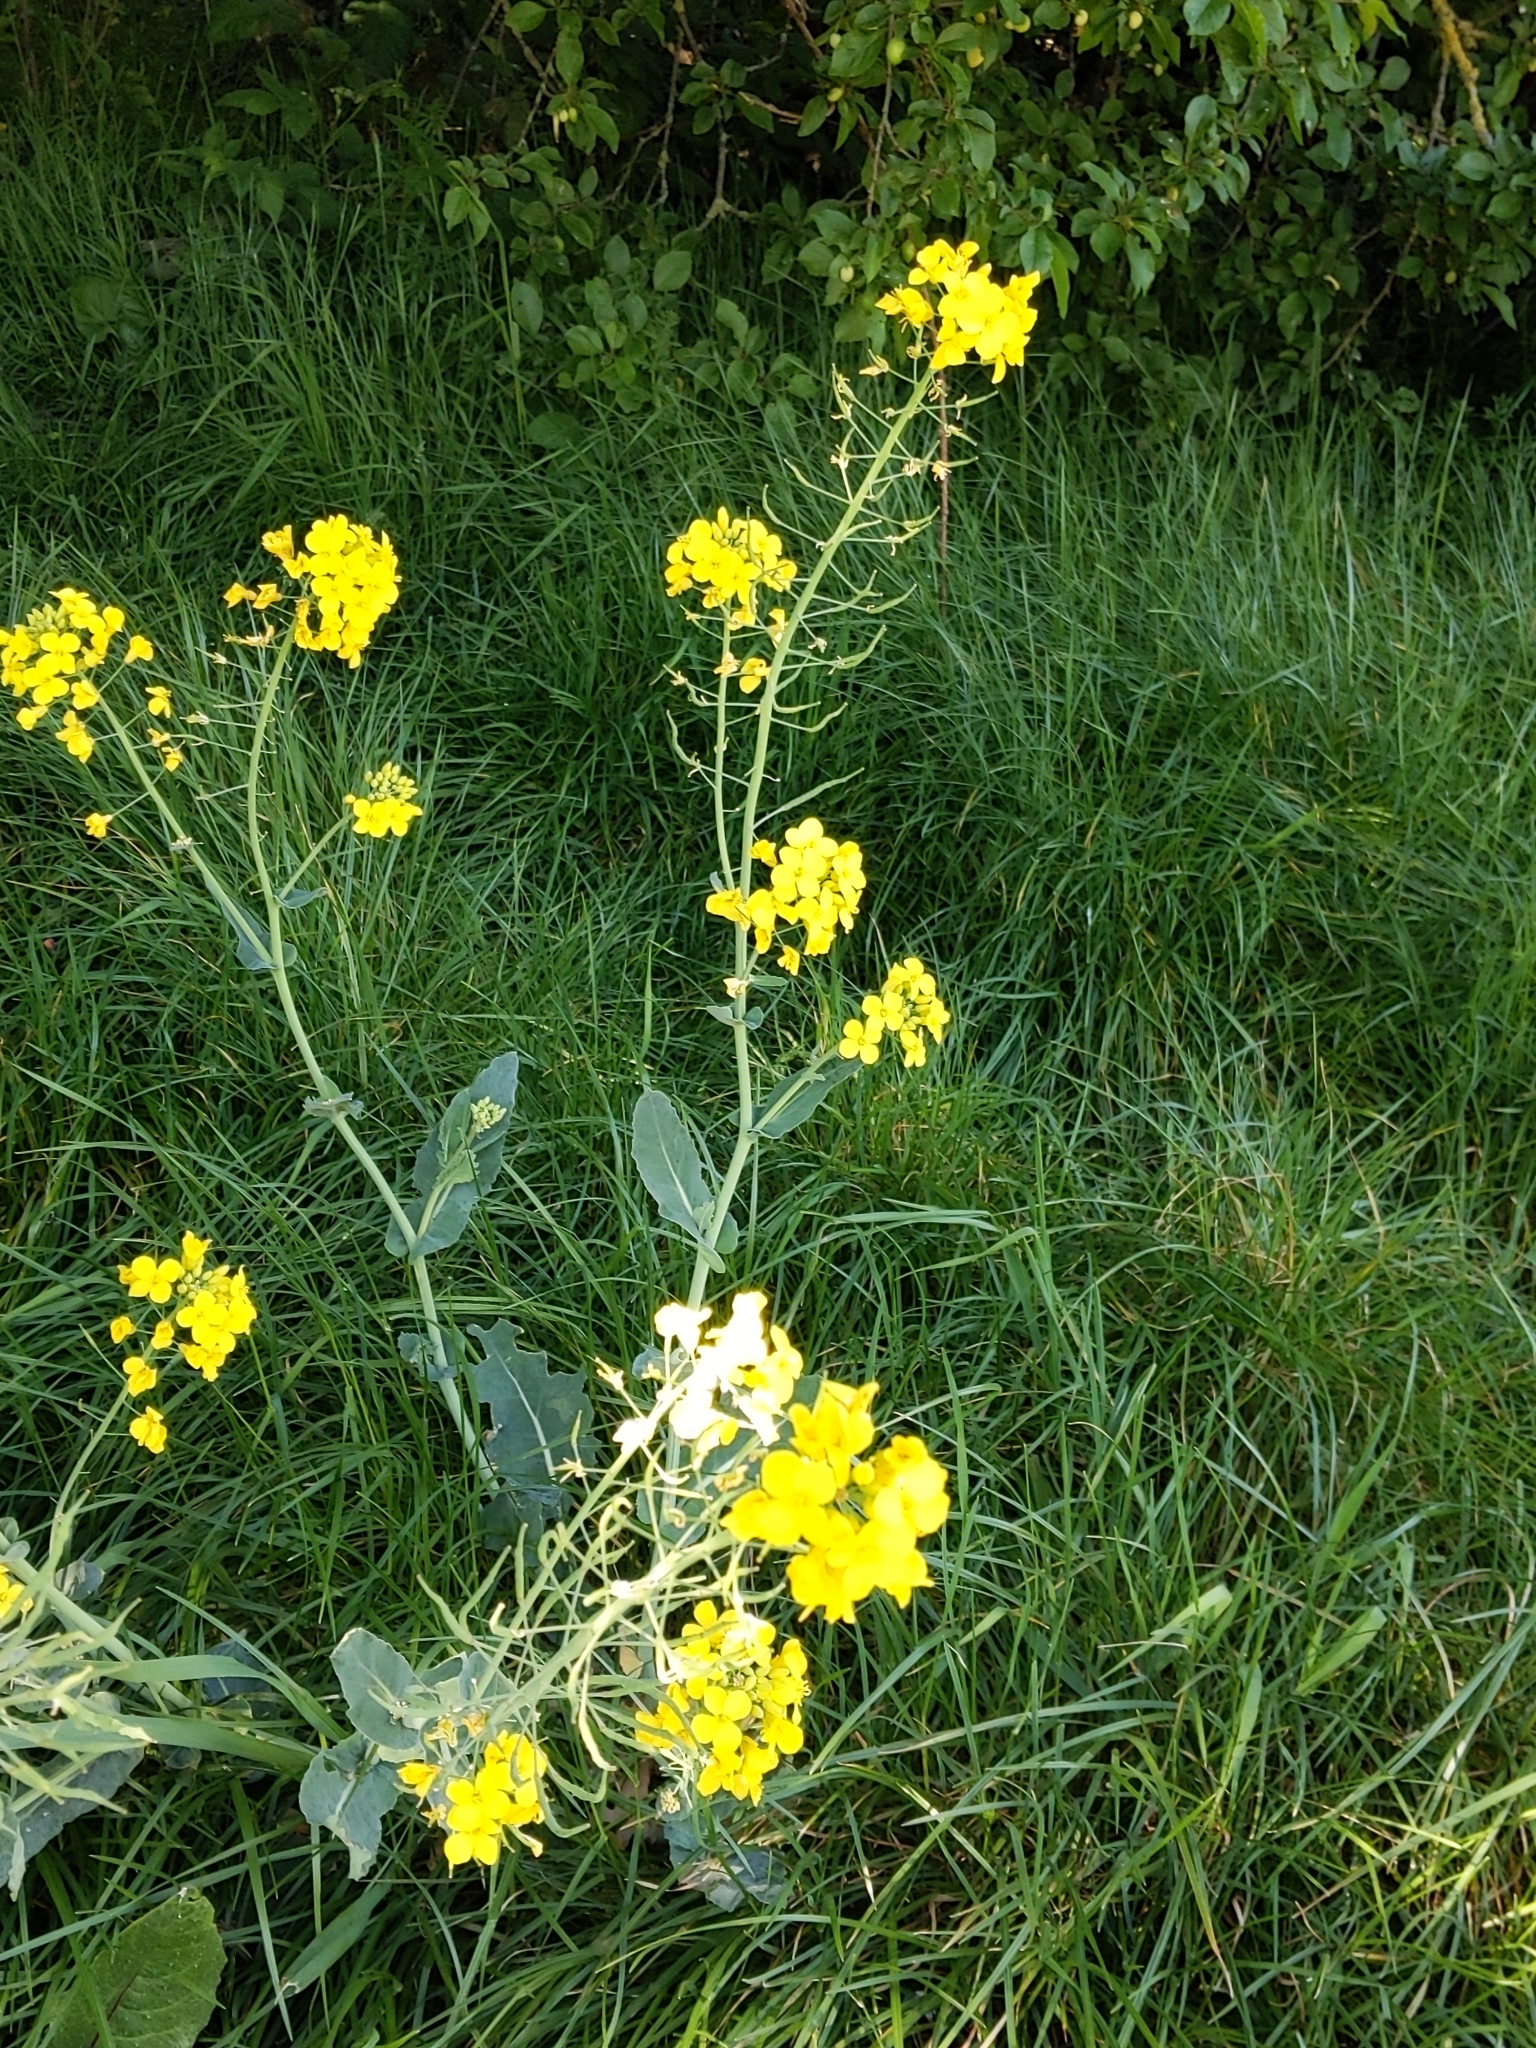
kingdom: Plantae
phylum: Tracheophyta
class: Magnoliopsida
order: Brassicales
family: Brassicaceae
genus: Brassica
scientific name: Brassica napus
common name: Rape
